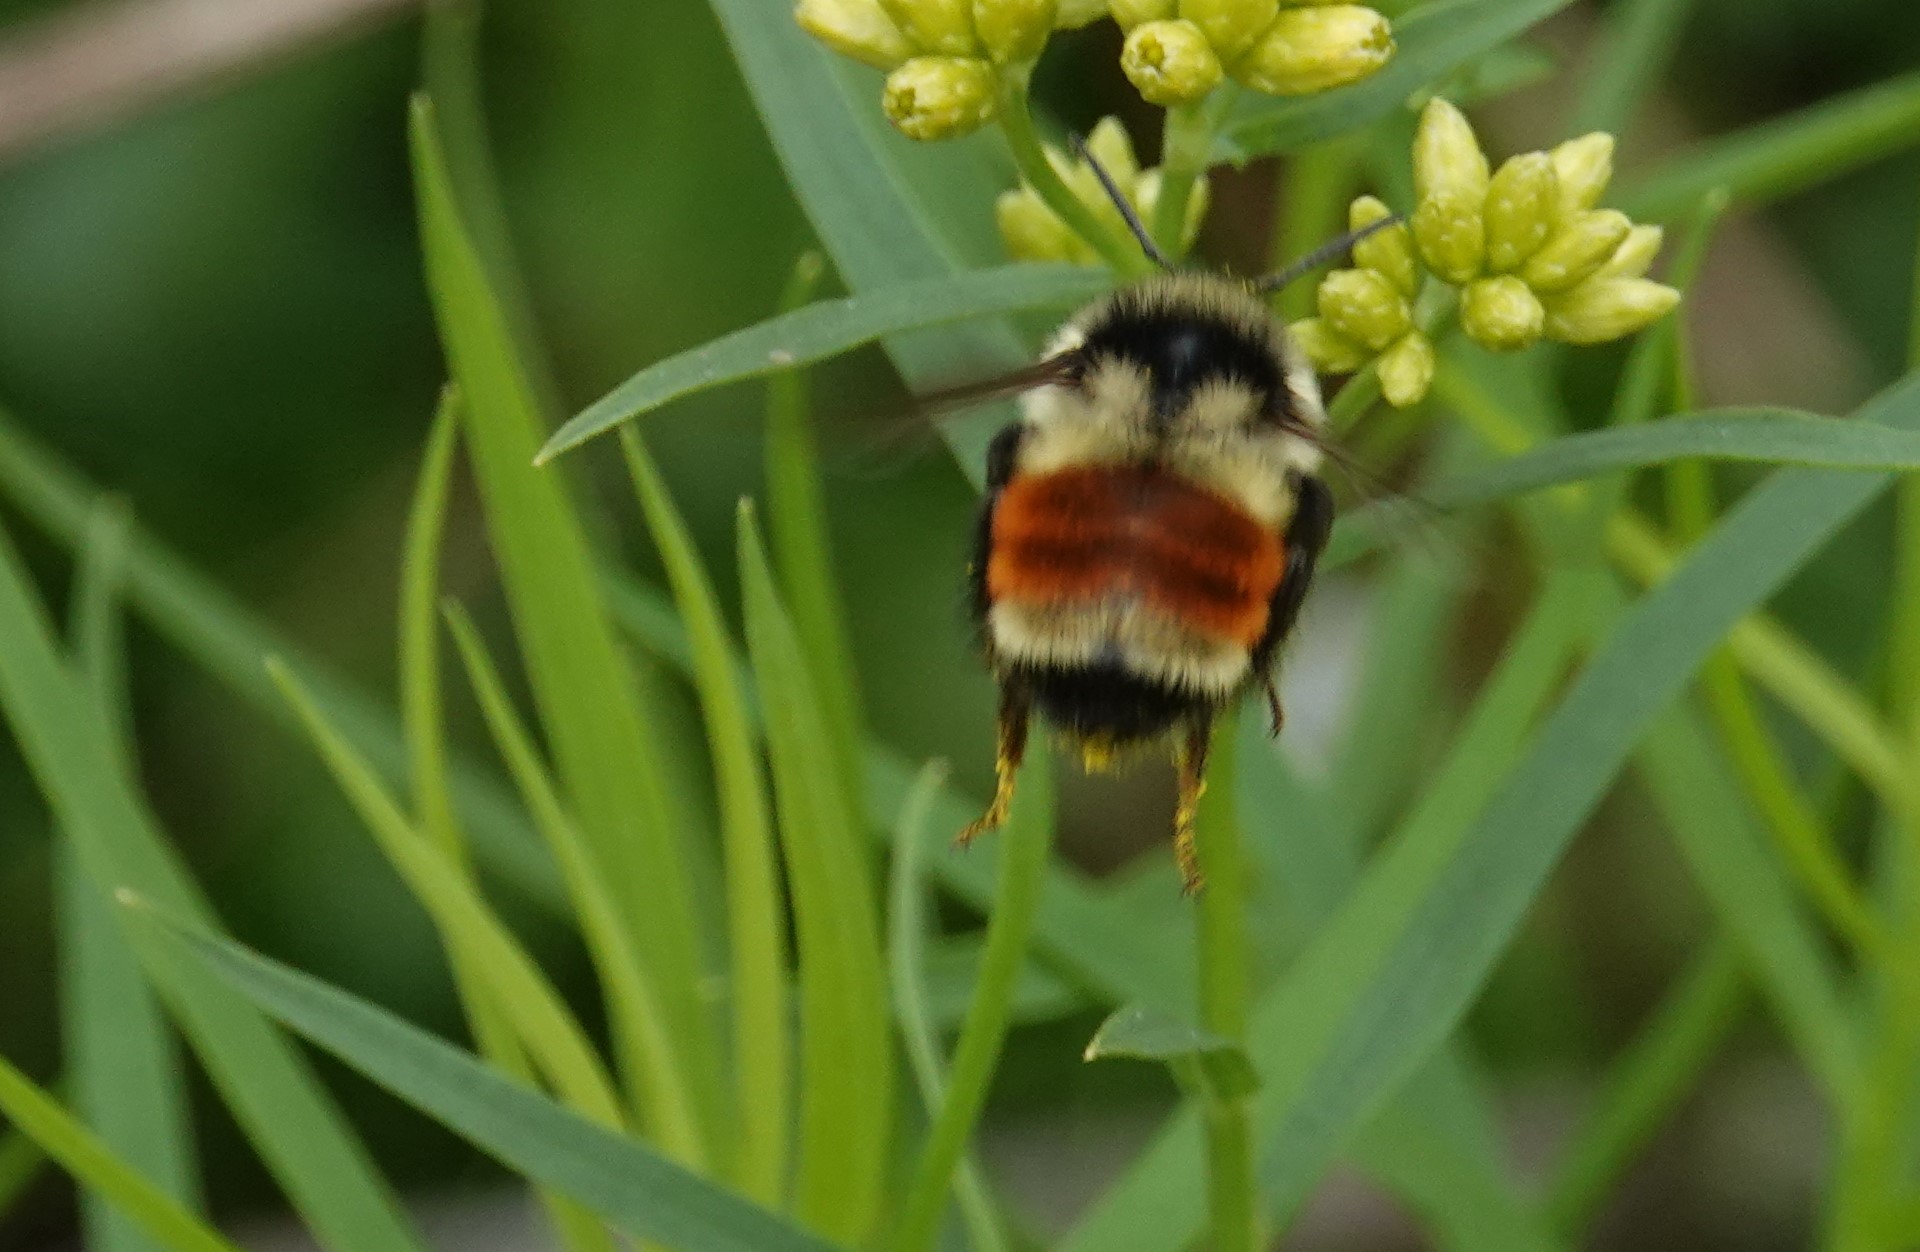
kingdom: Animalia
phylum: Arthropoda
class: Insecta
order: Hymenoptera
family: Apidae
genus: Bombus
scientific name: Bombus ternarius
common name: Tri-colored bumble bee
